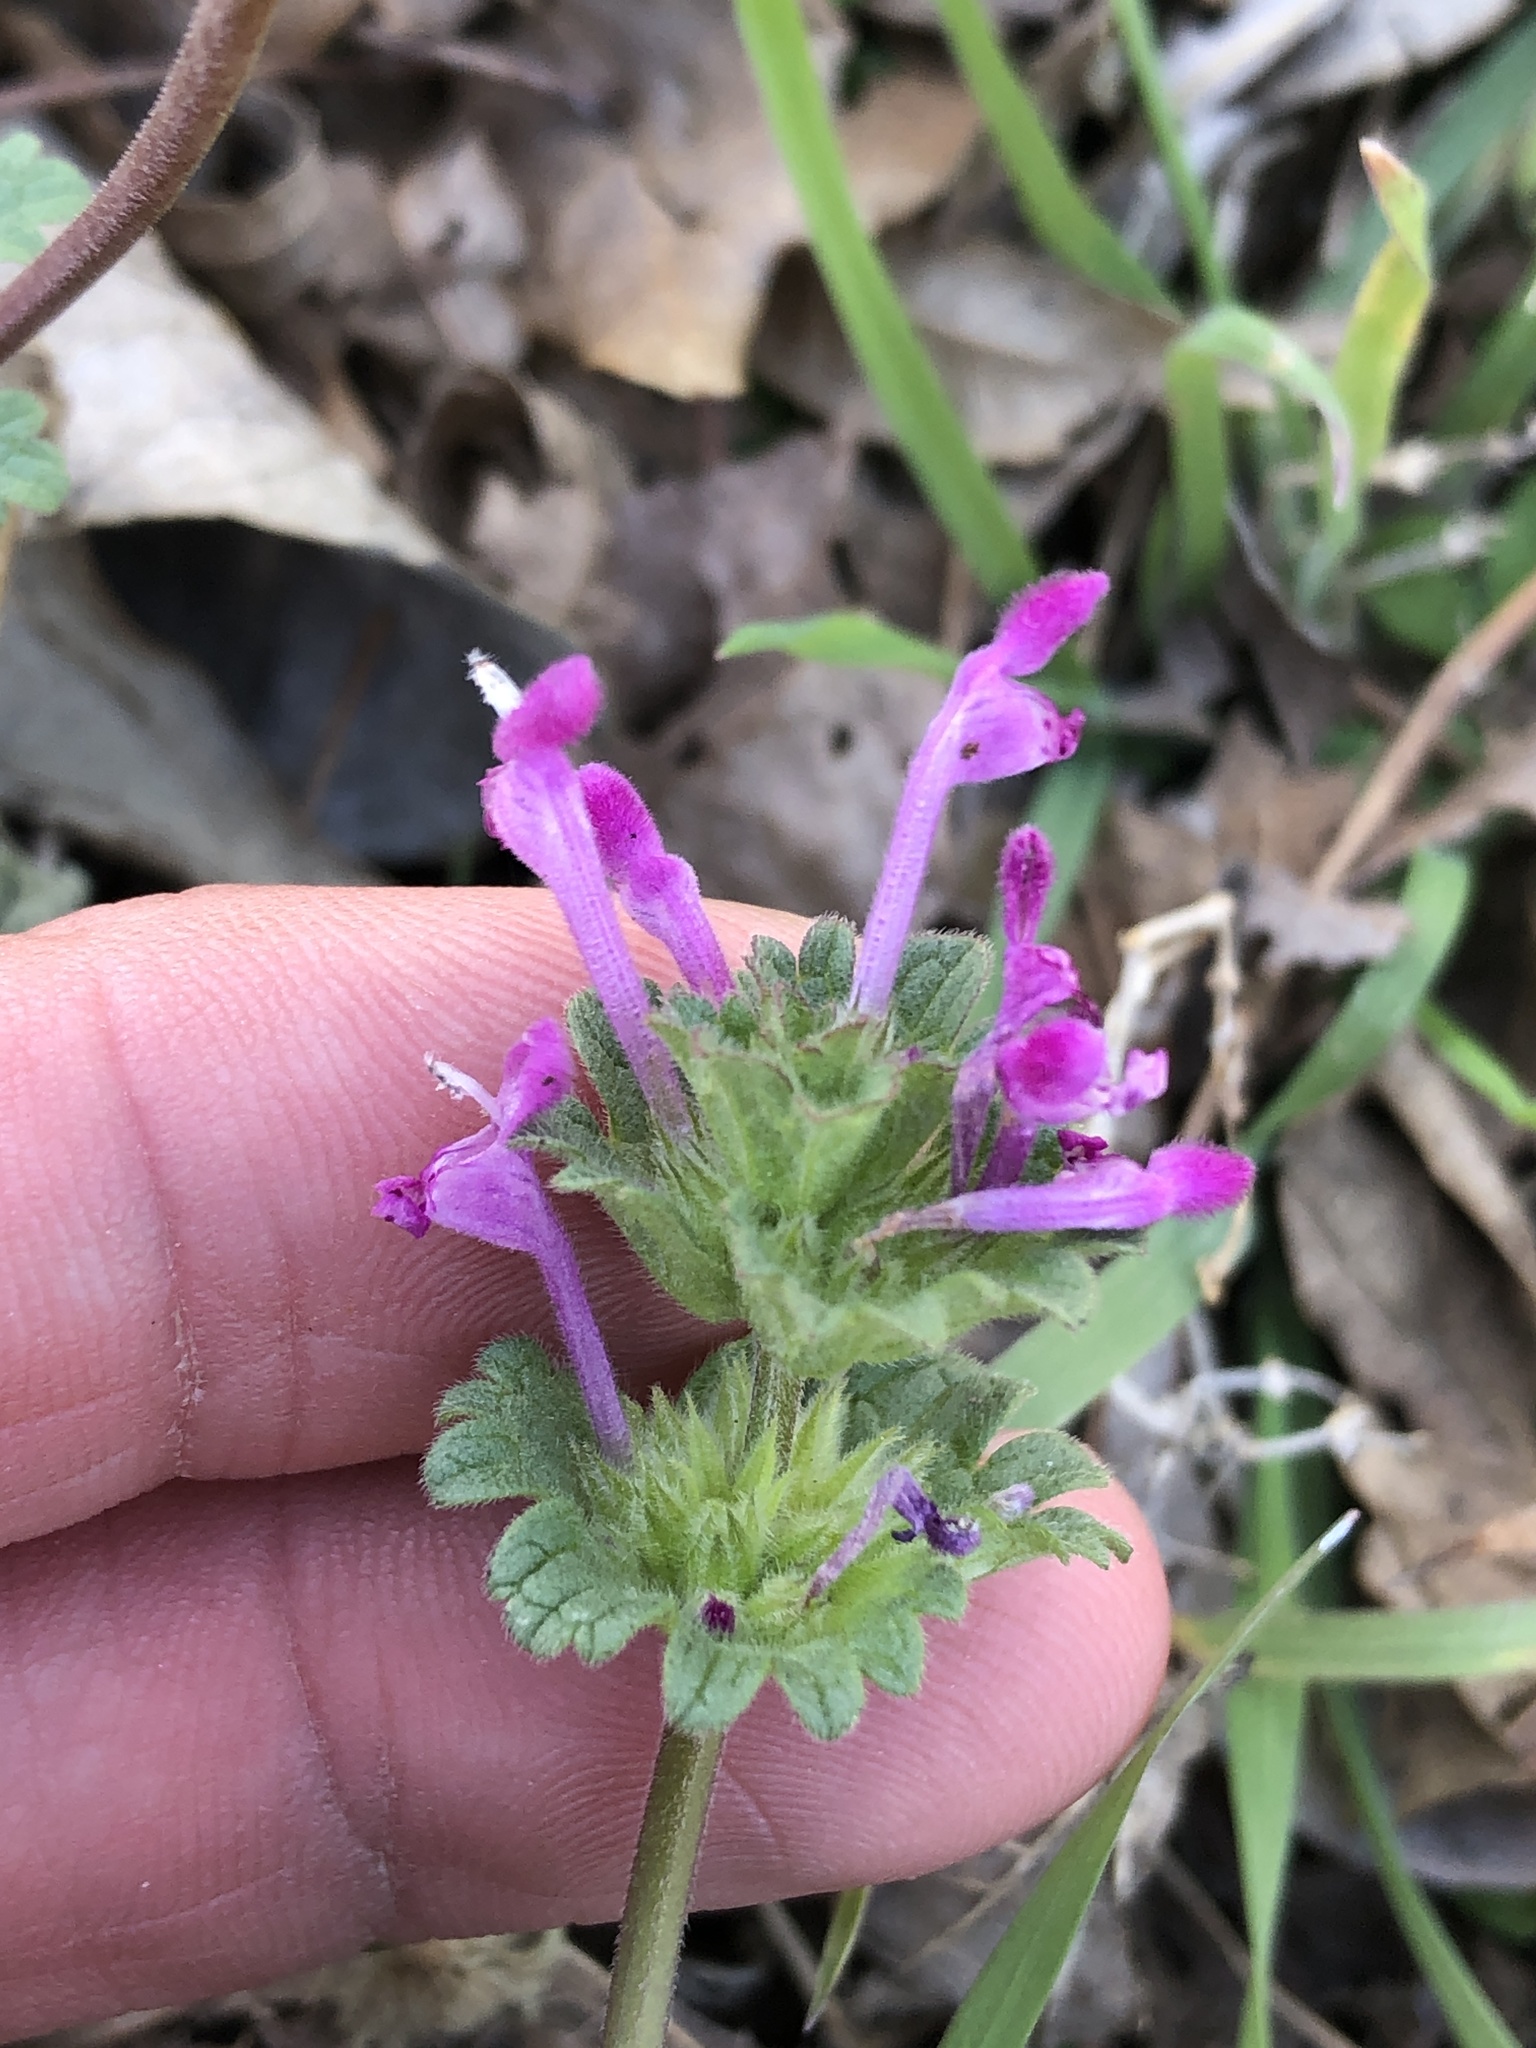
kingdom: Plantae
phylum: Tracheophyta
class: Magnoliopsida
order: Lamiales
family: Lamiaceae
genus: Lamium
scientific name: Lamium amplexicaule
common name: Henbit dead-nettle
